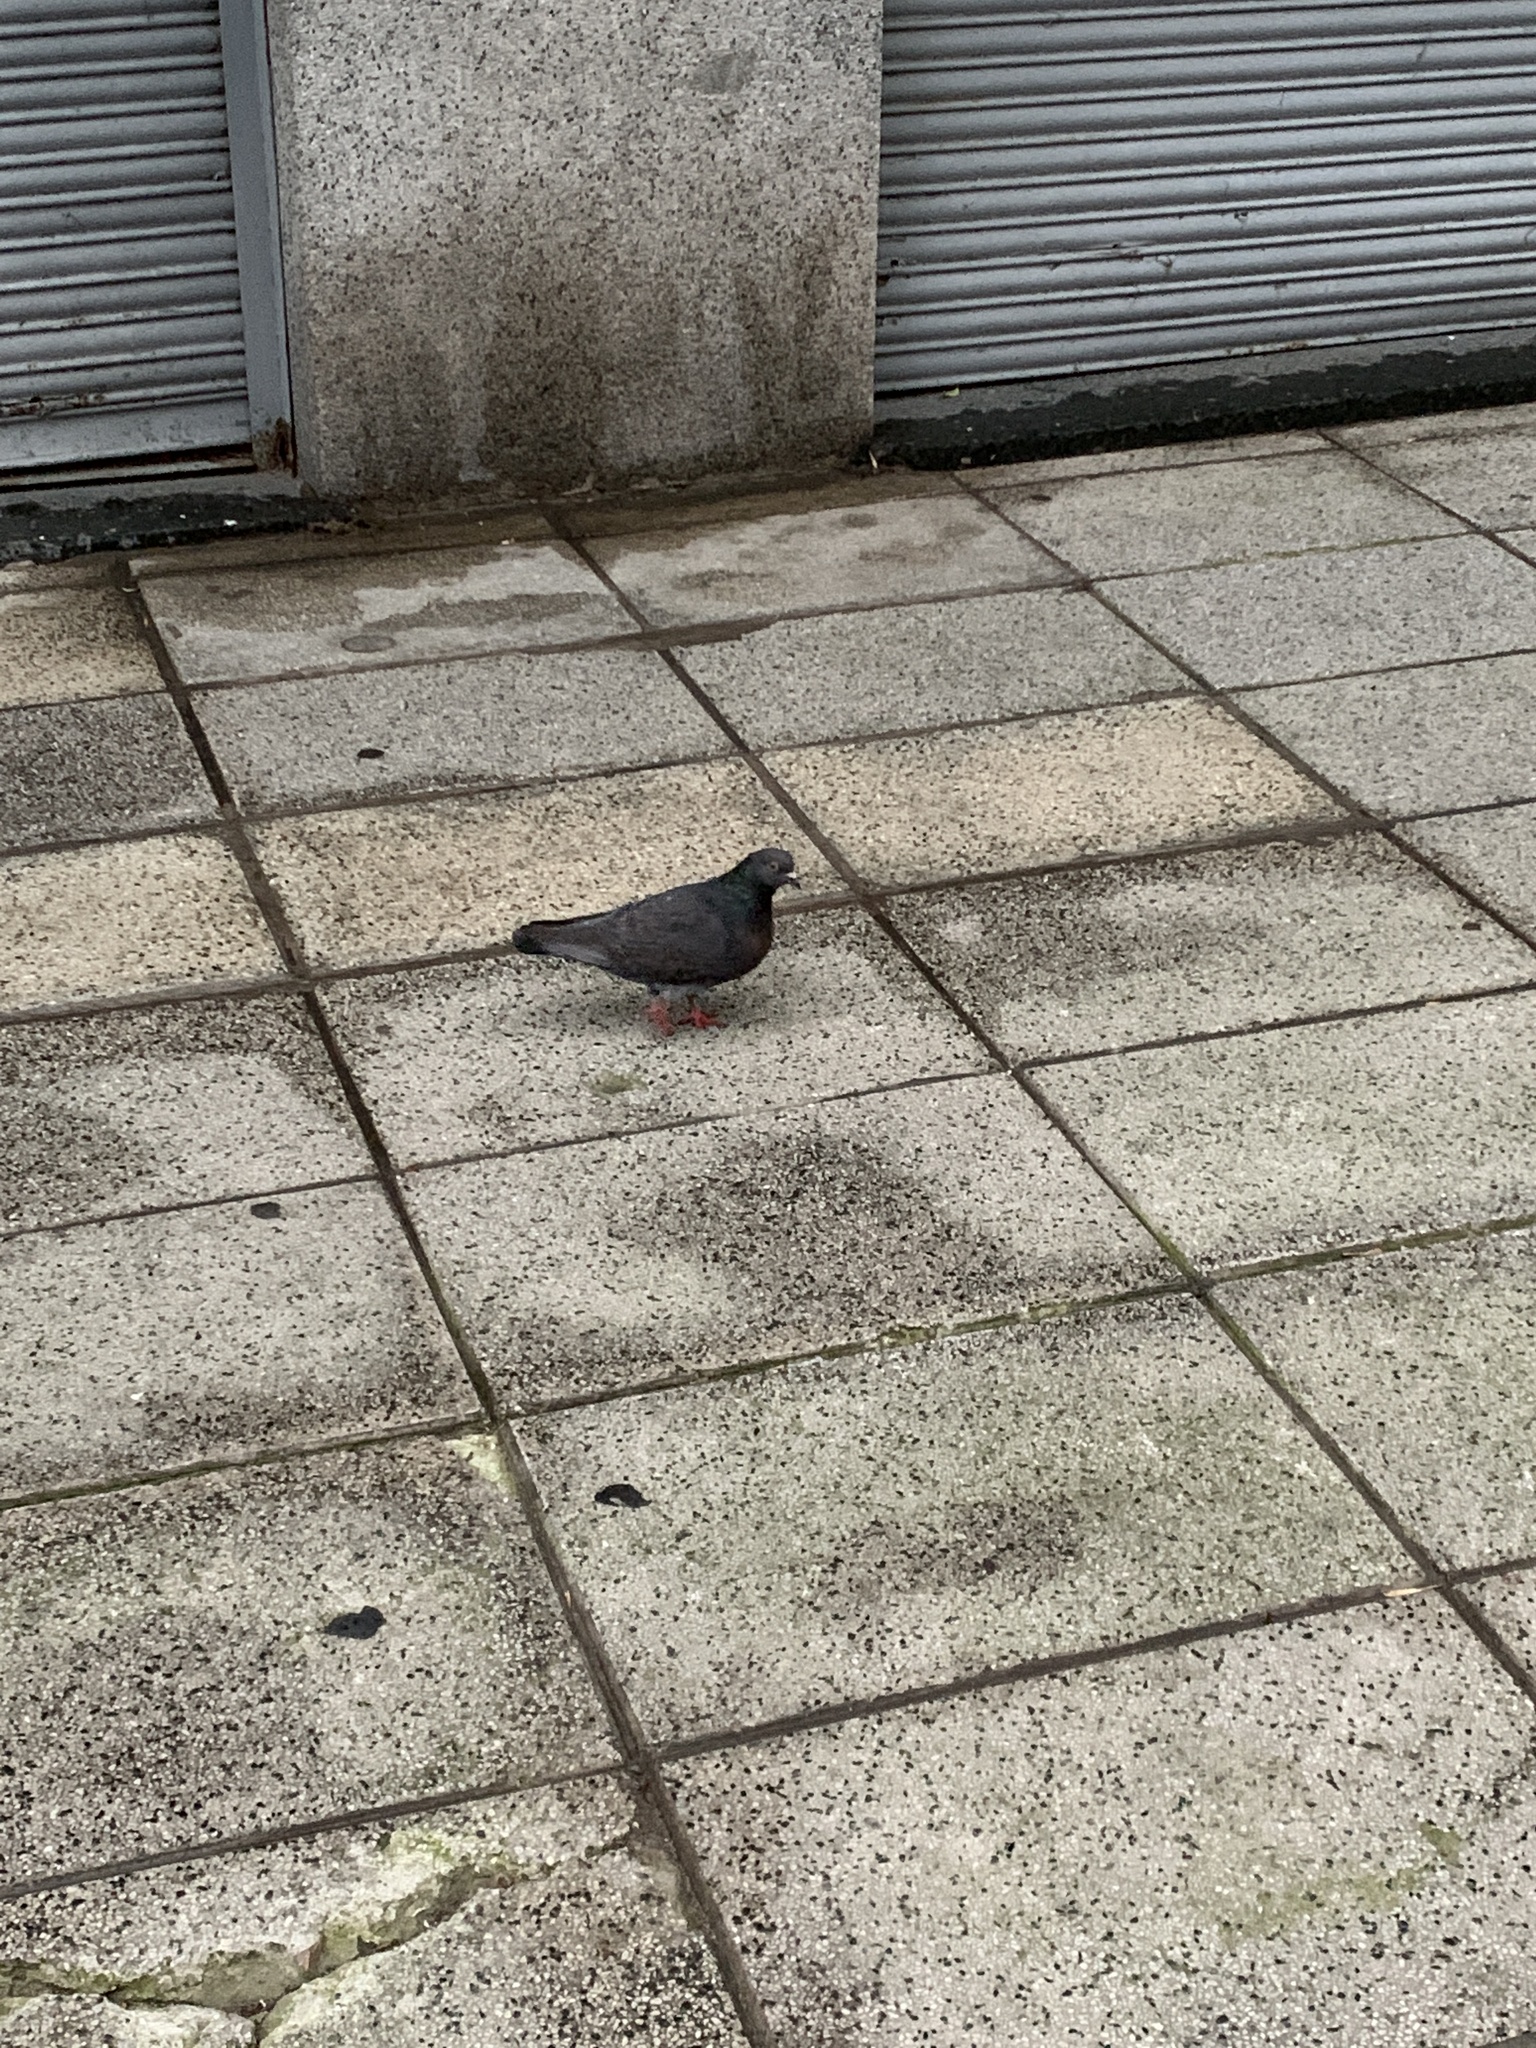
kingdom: Animalia
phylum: Chordata
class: Aves
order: Columbiformes
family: Columbidae
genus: Columba
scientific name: Columba livia
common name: Rock pigeon
